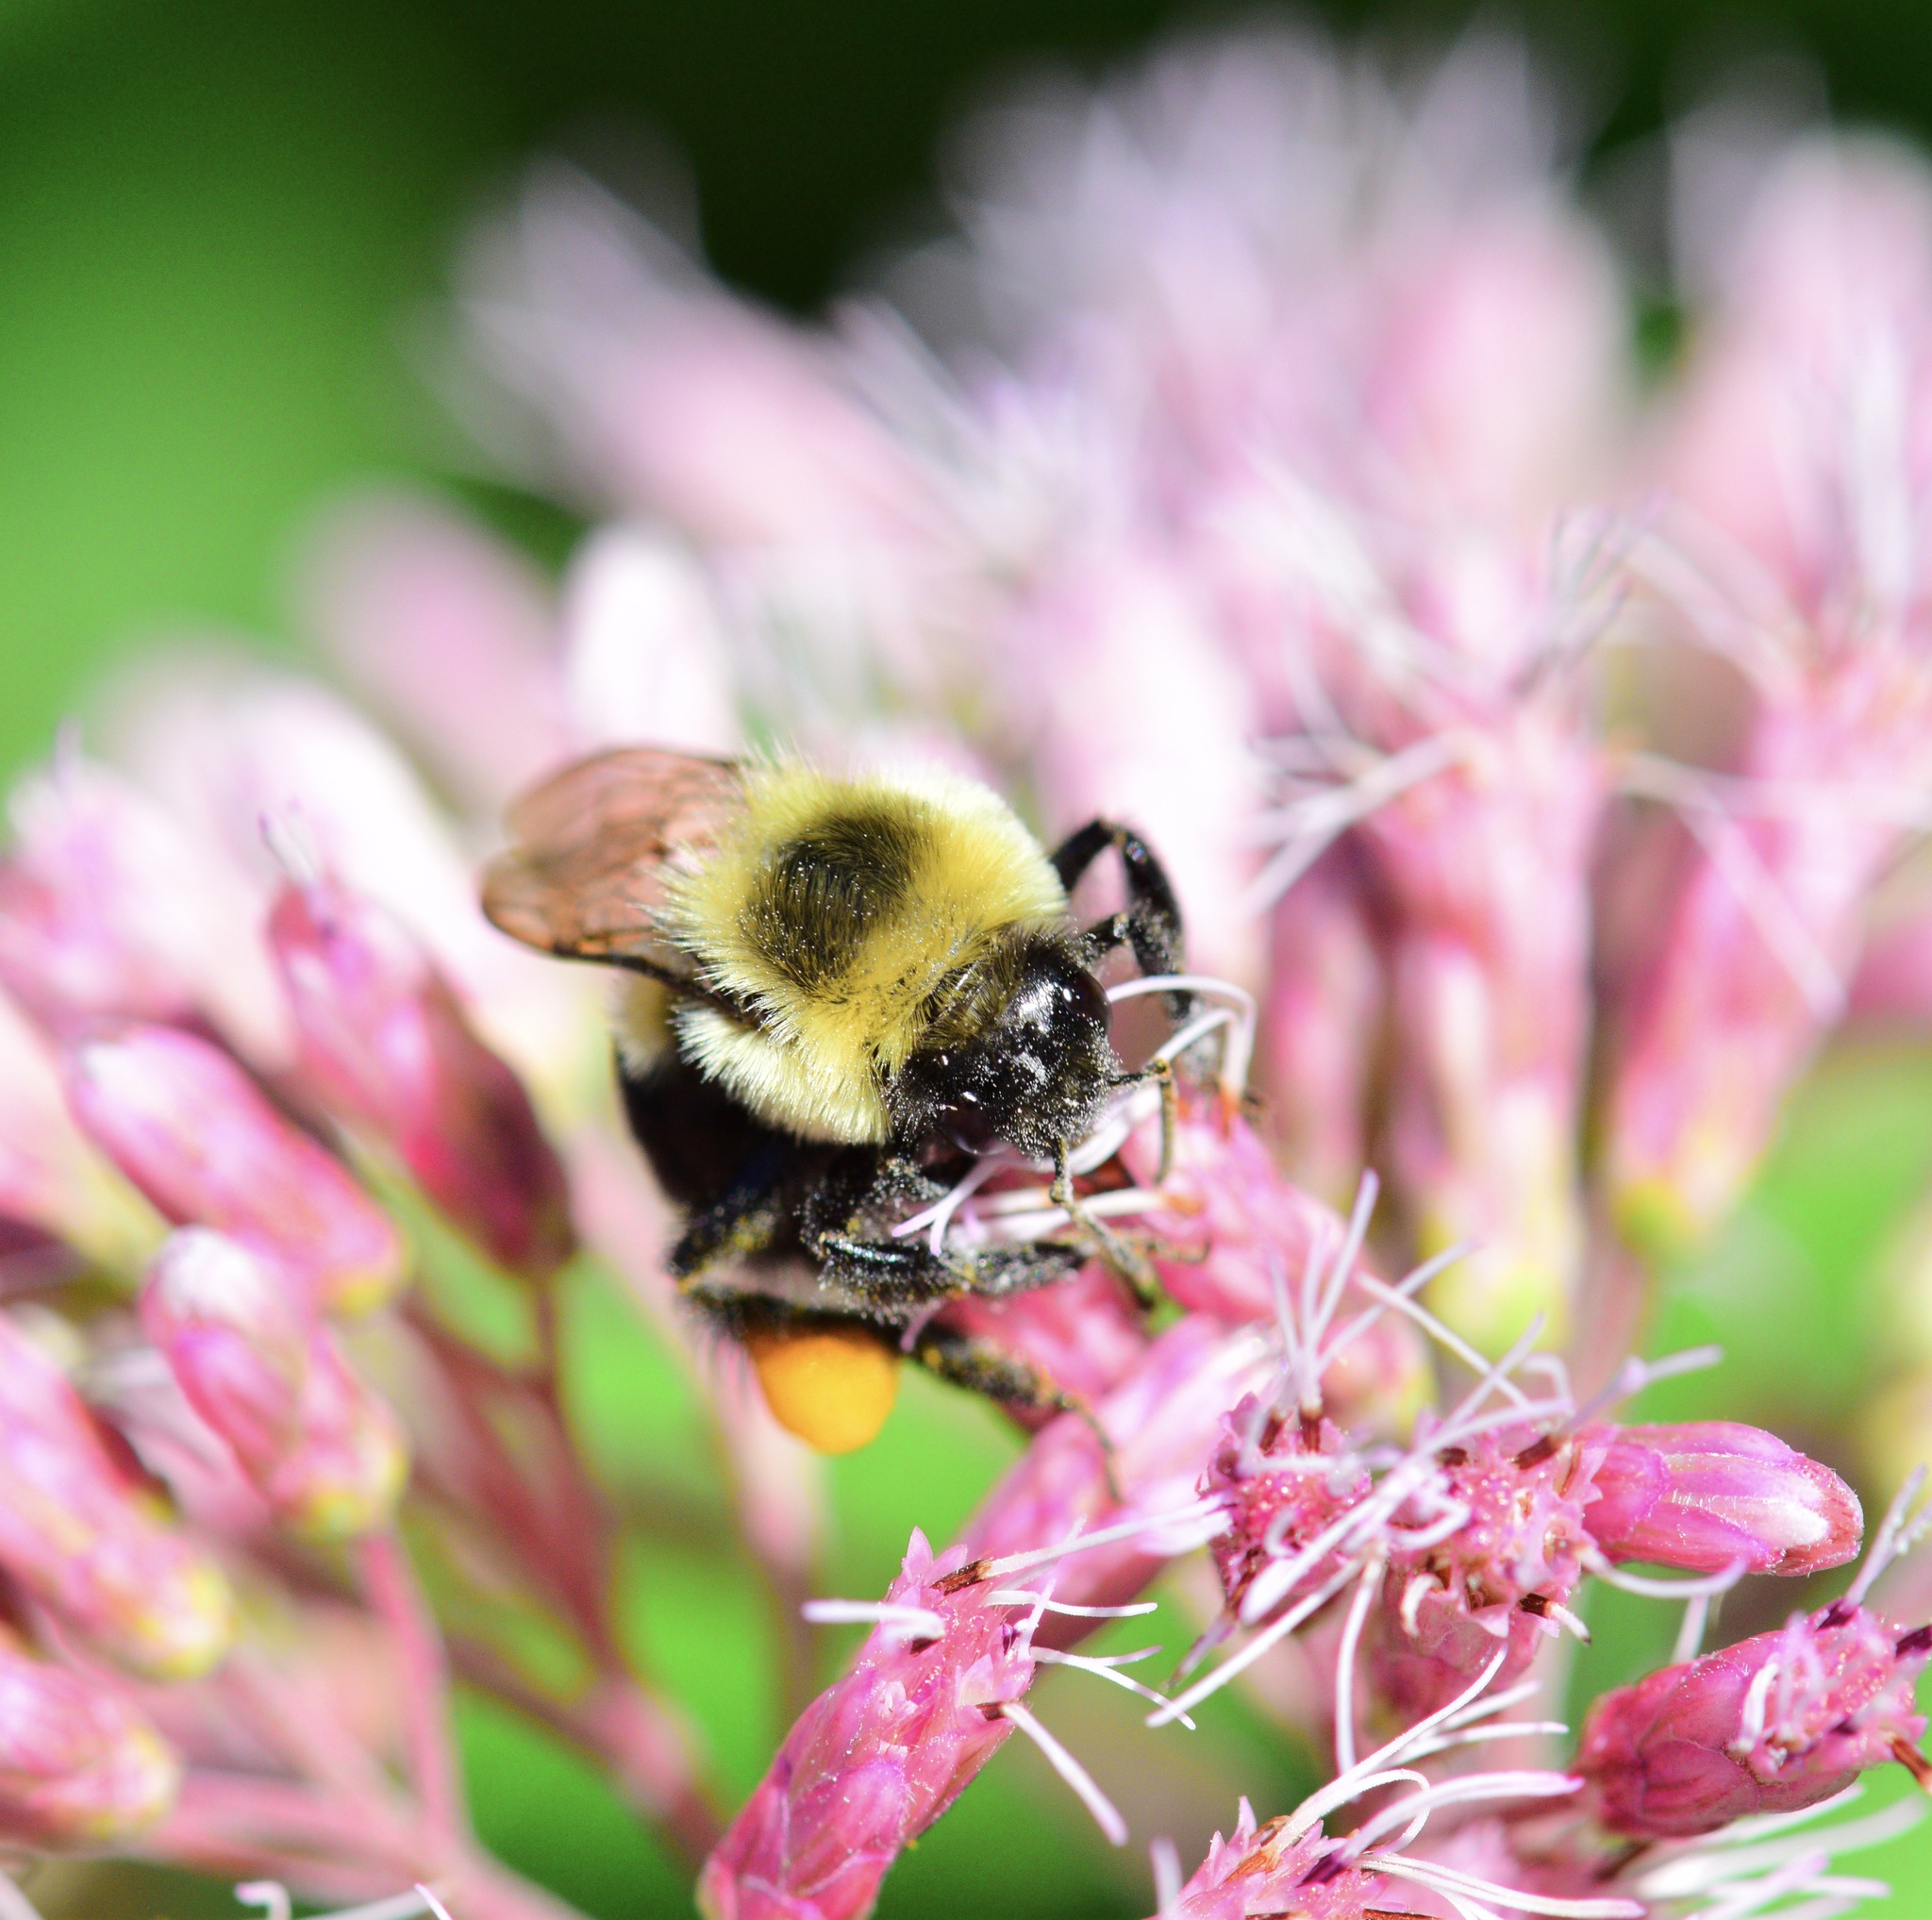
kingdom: Animalia
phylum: Arthropoda
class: Insecta
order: Hymenoptera
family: Apidae
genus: Bombus
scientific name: Bombus impatiens
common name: Common eastern bumble bee
